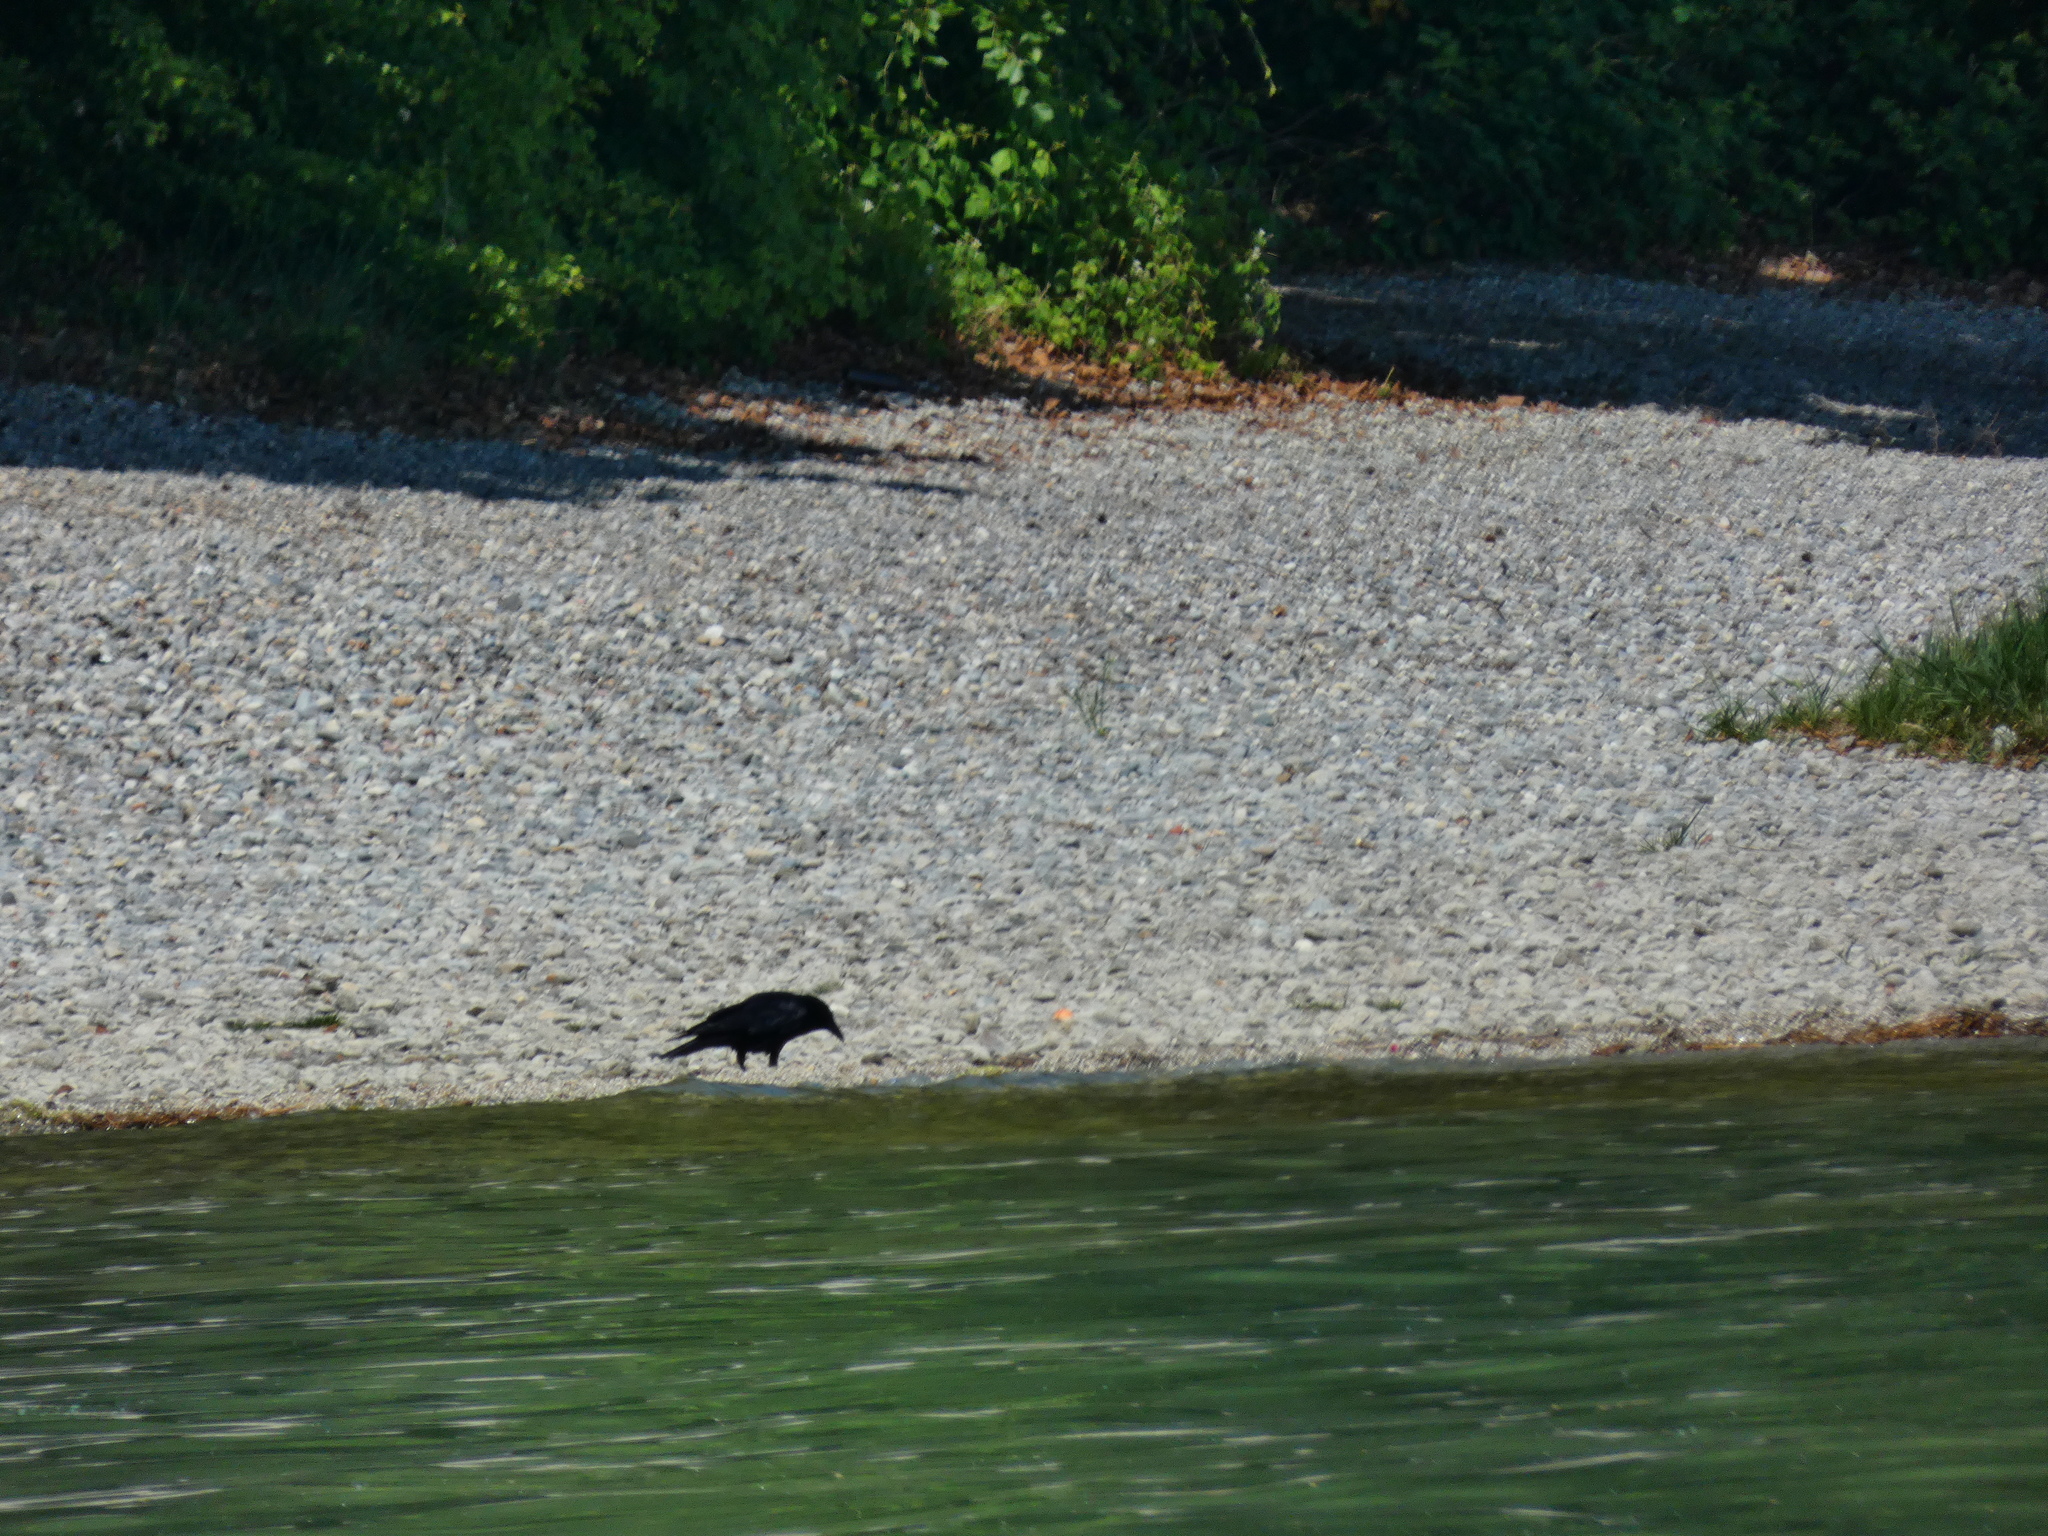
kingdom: Animalia
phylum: Chordata
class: Aves
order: Passeriformes
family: Corvidae
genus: Corvus
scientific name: Corvus corone
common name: Carrion crow
